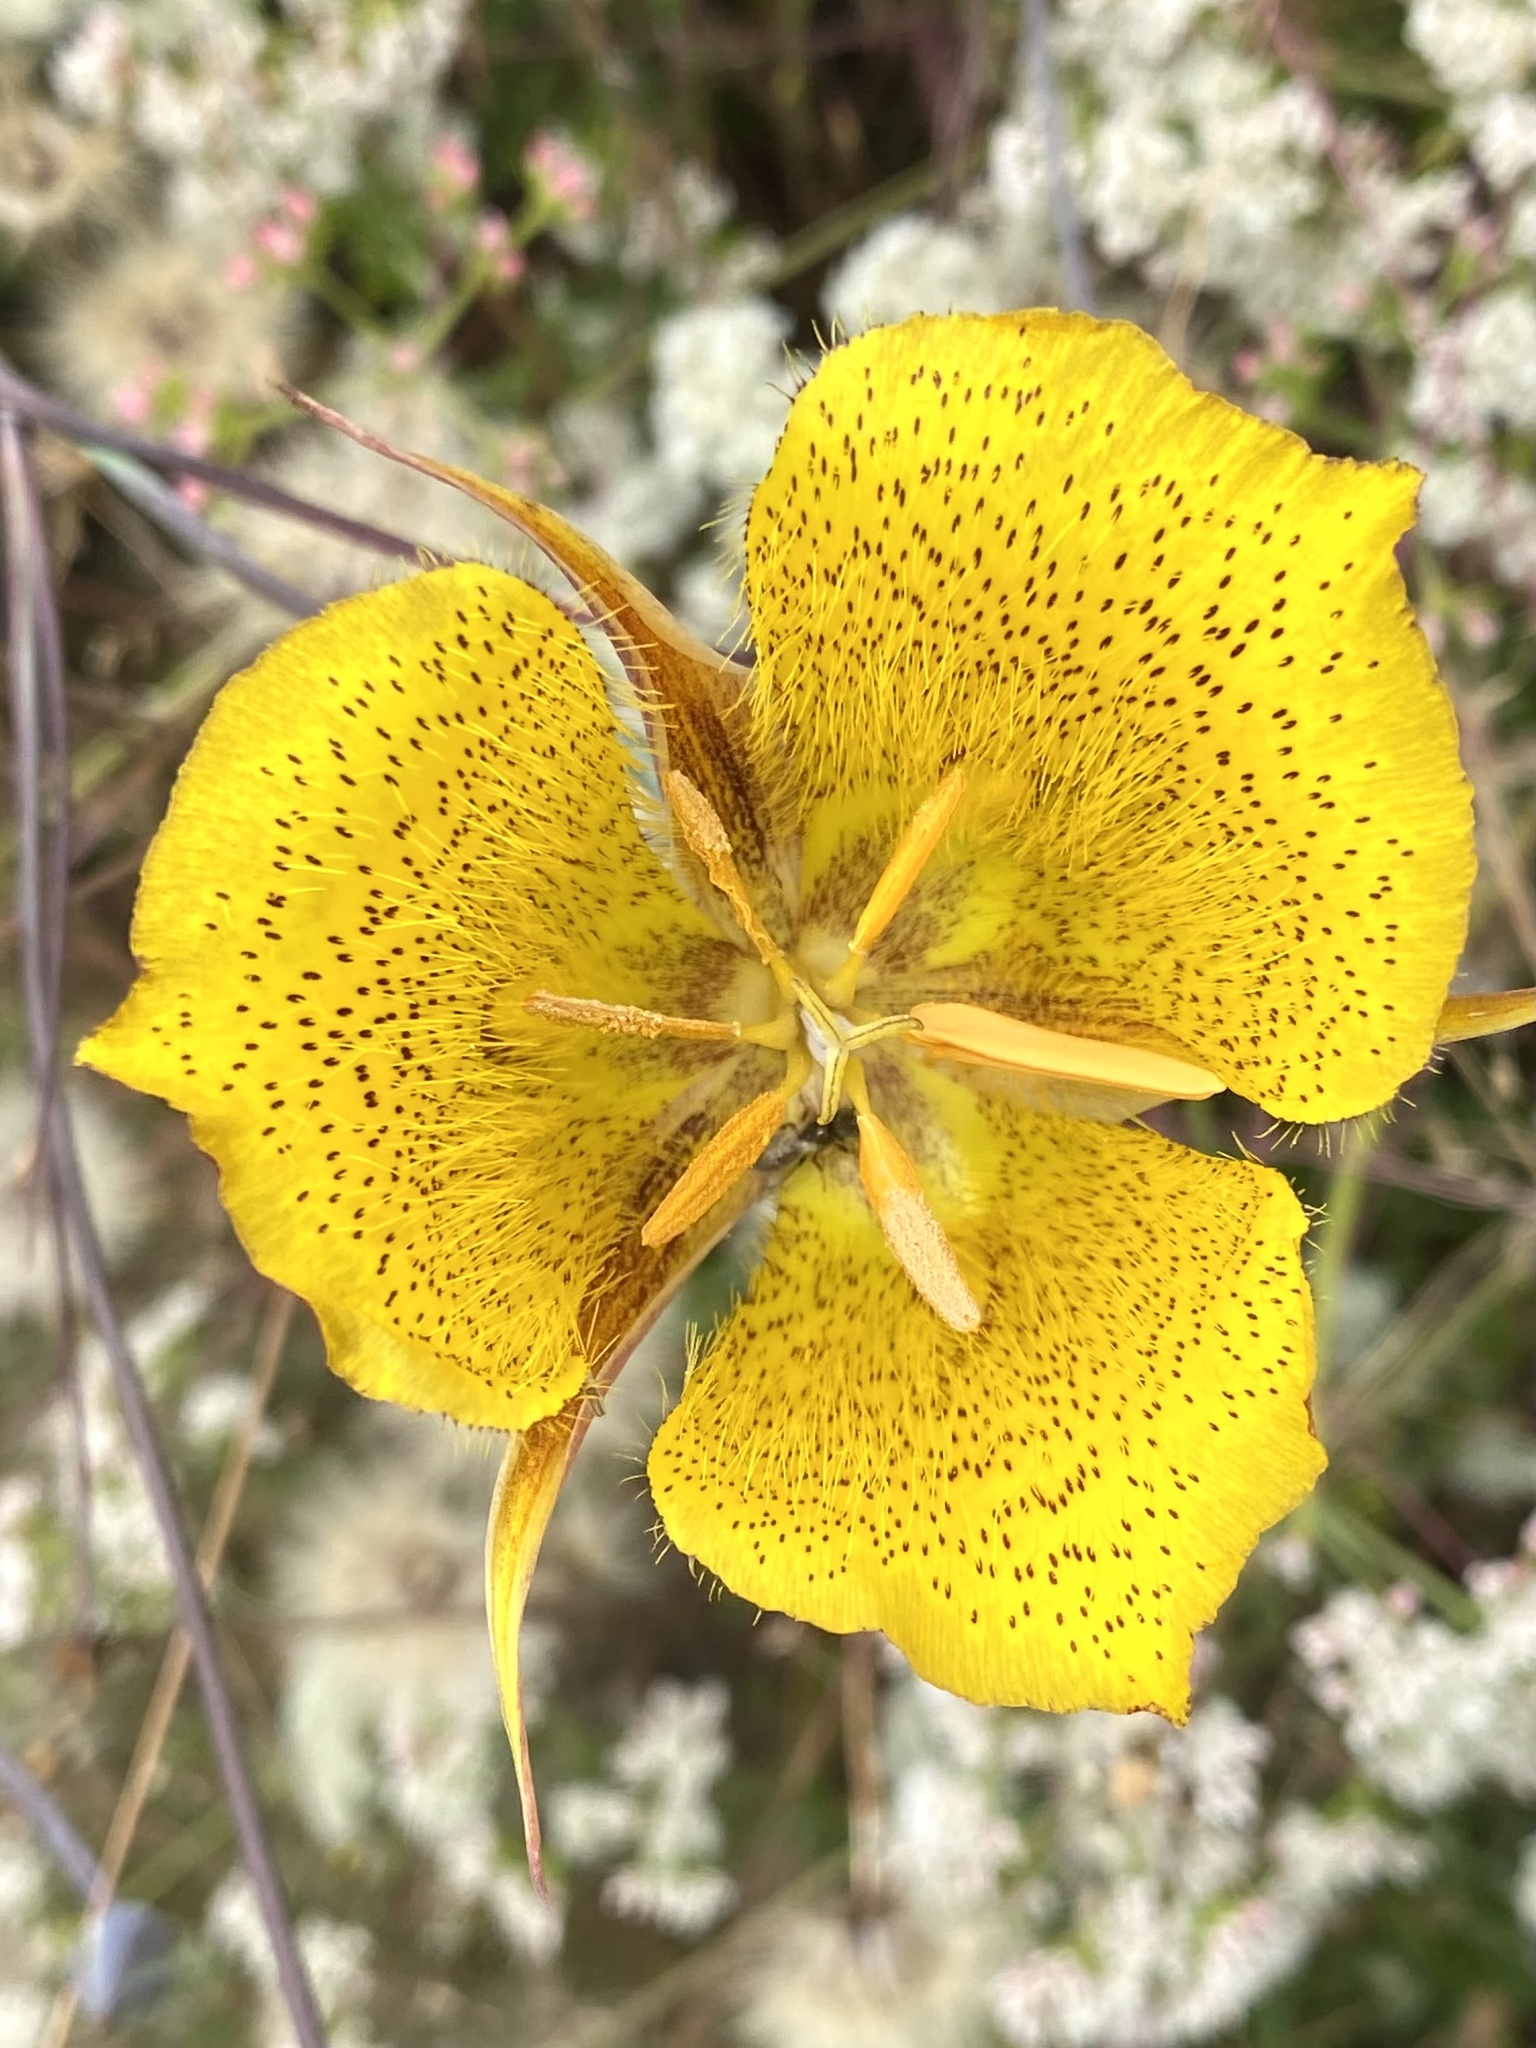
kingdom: Plantae
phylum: Tracheophyta
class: Liliopsida
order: Liliales
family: Liliaceae
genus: Calochortus
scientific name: Calochortus weedii
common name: Weed's mariposa-lily
